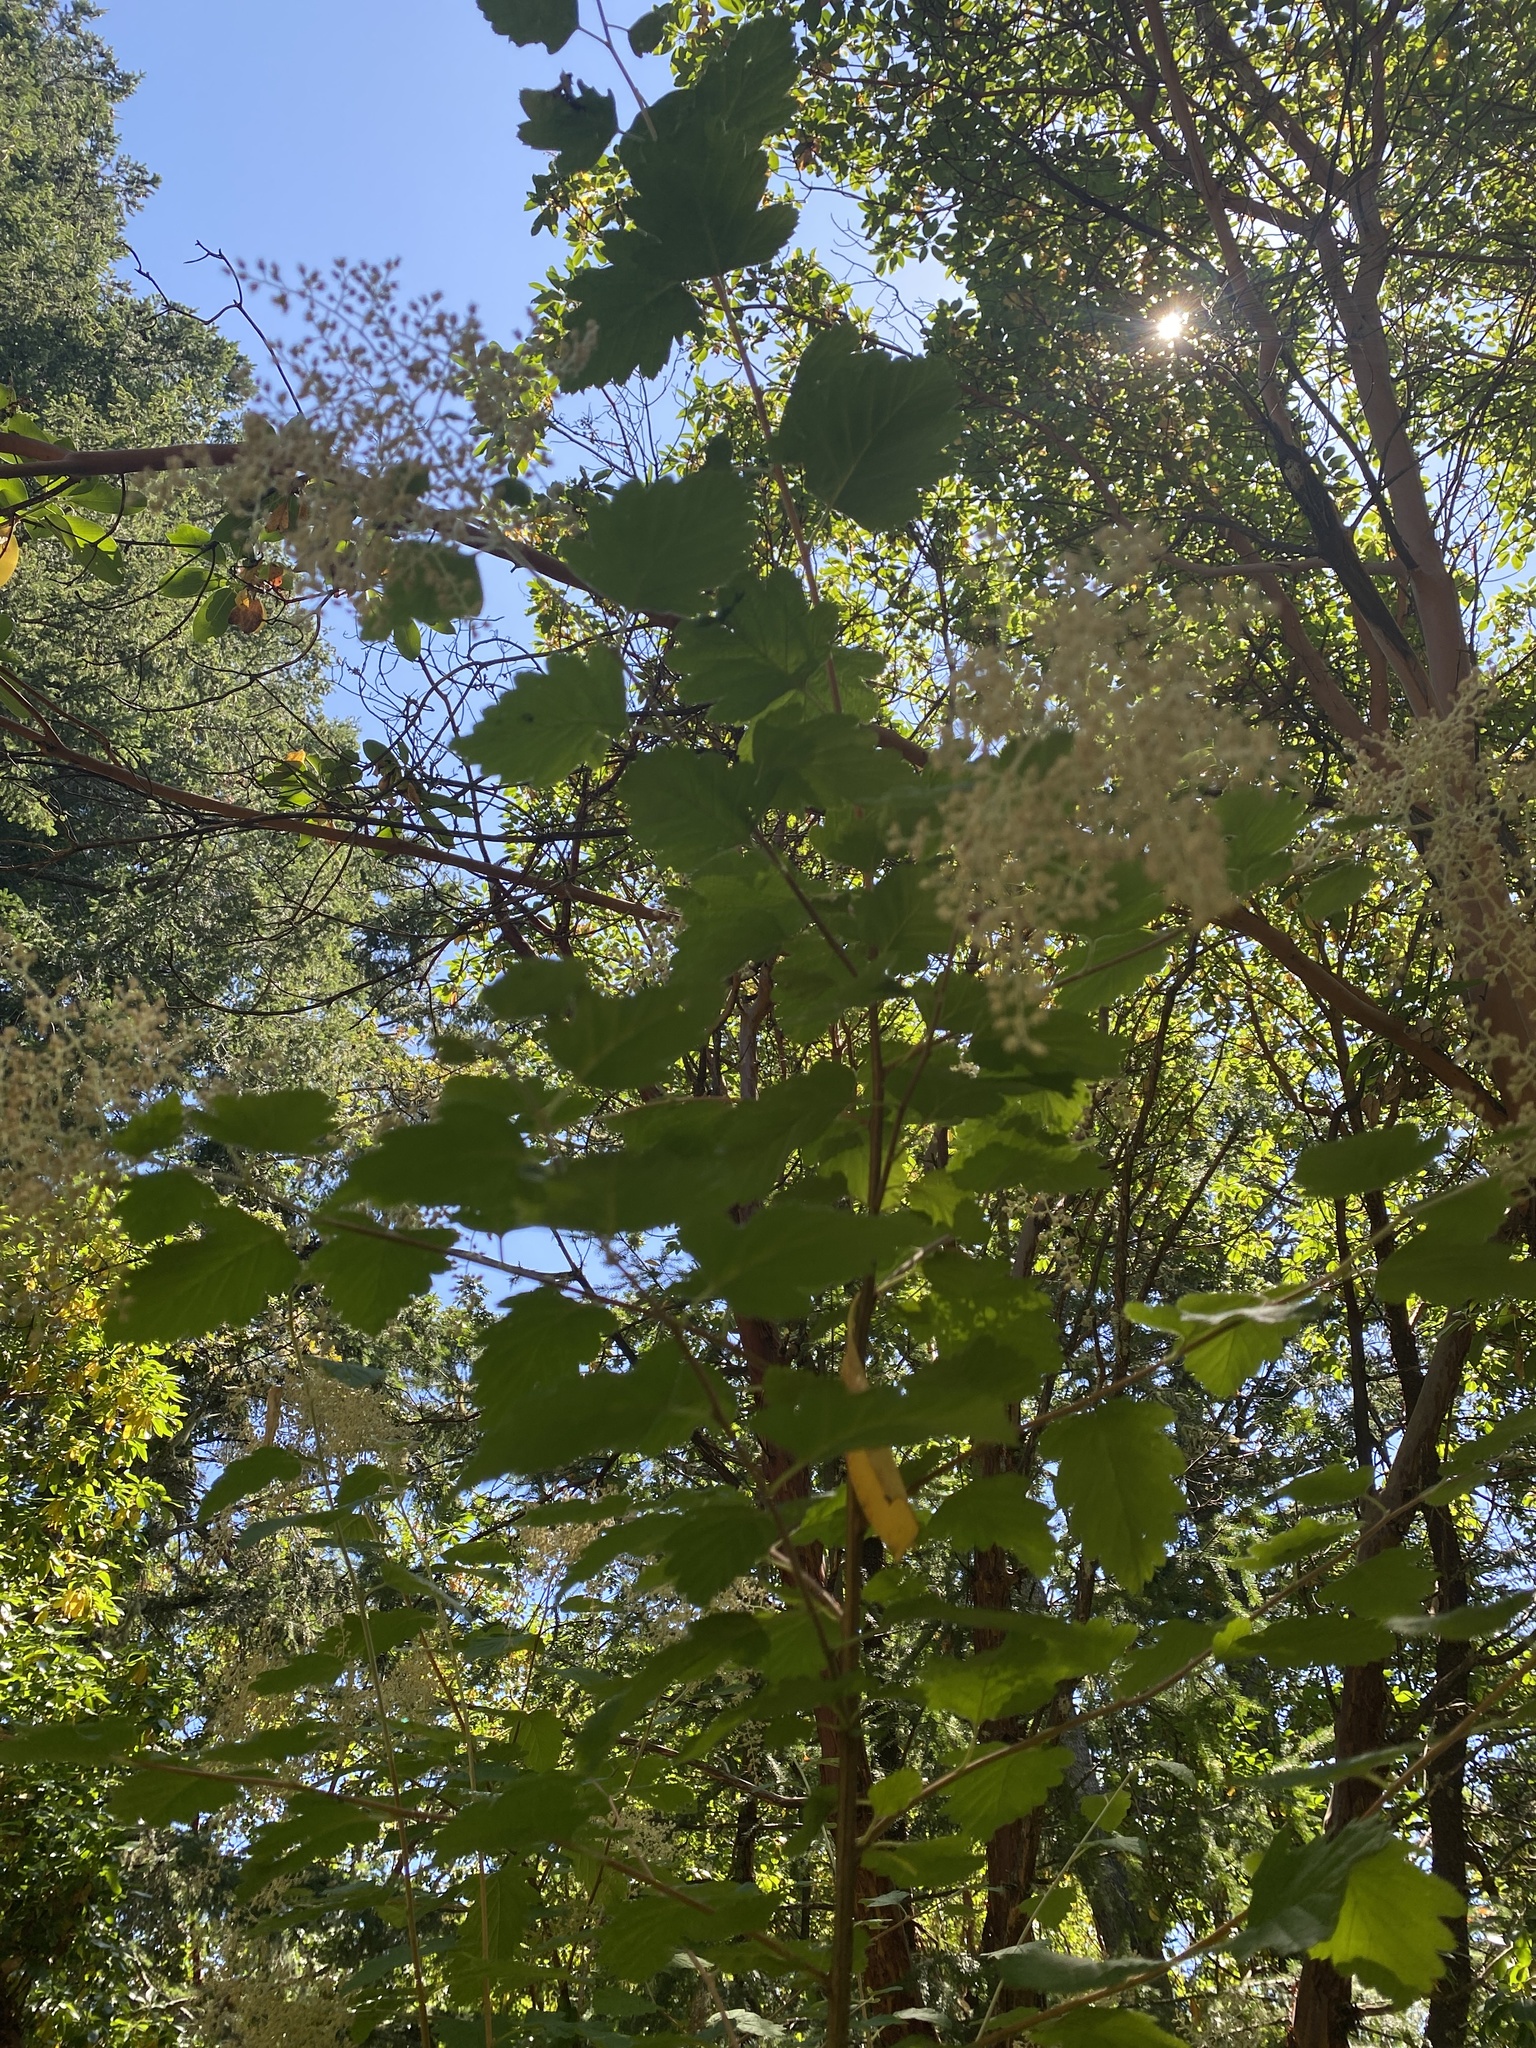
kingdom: Plantae
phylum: Tracheophyta
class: Magnoliopsida
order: Rosales
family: Rosaceae
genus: Holodiscus
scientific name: Holodiscus discolor
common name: Oceanspray
